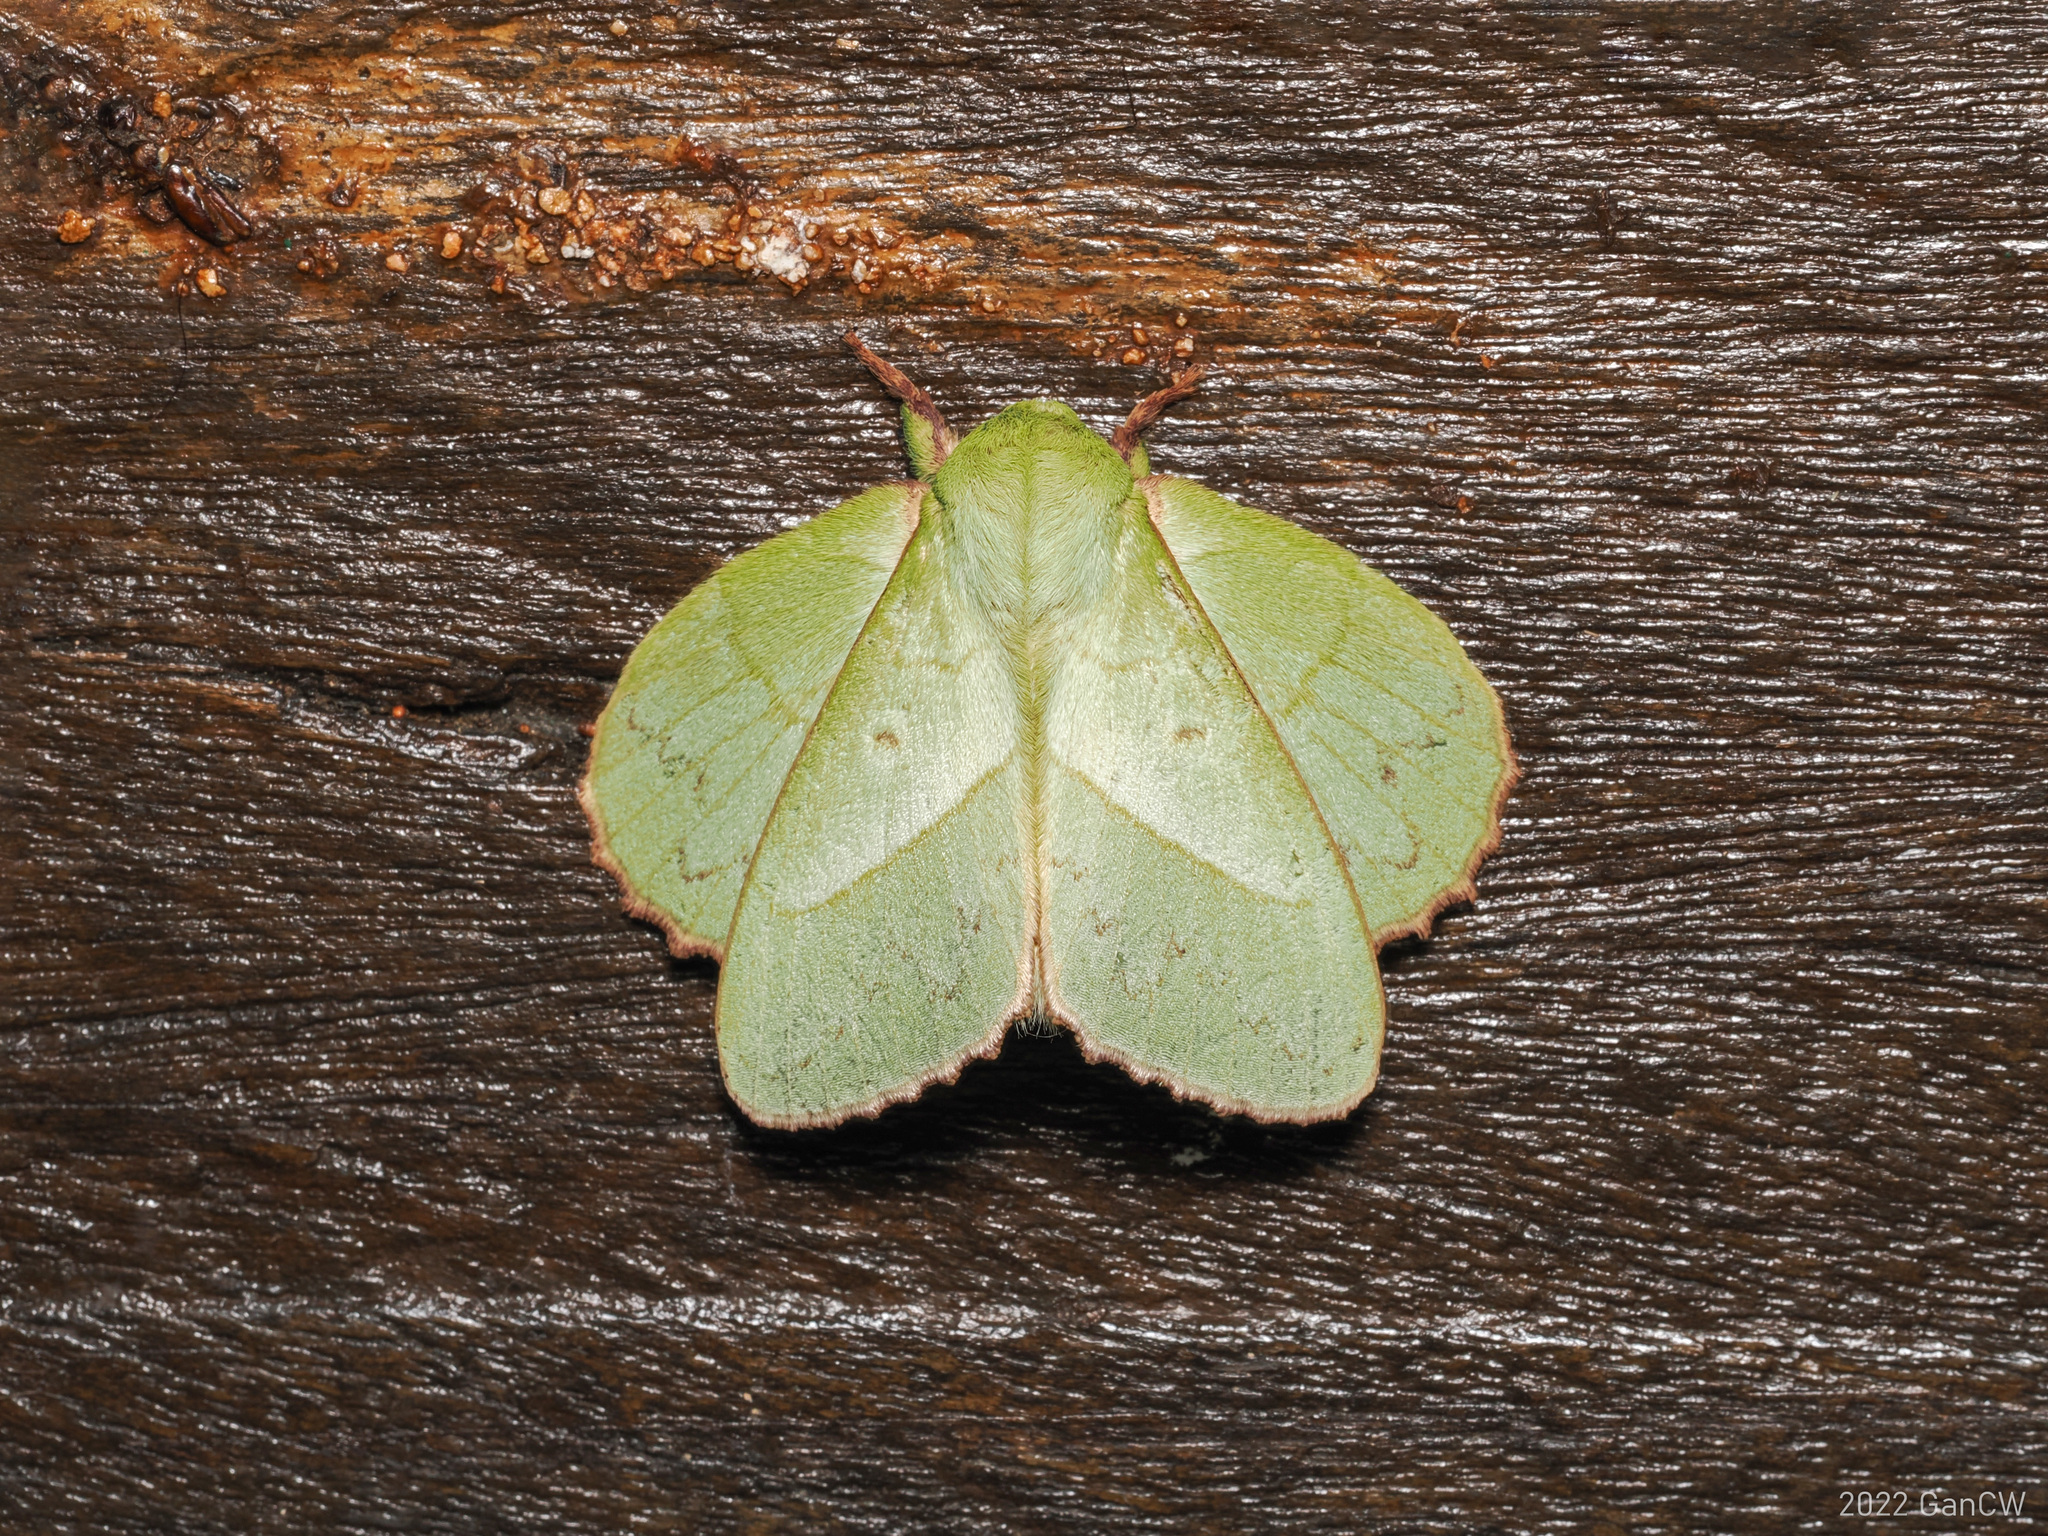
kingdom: Animalia
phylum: Arthropoda
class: Insecta
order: Lepidoptera
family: Lasiocampidae
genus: Trabala
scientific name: Trabala ganesha
